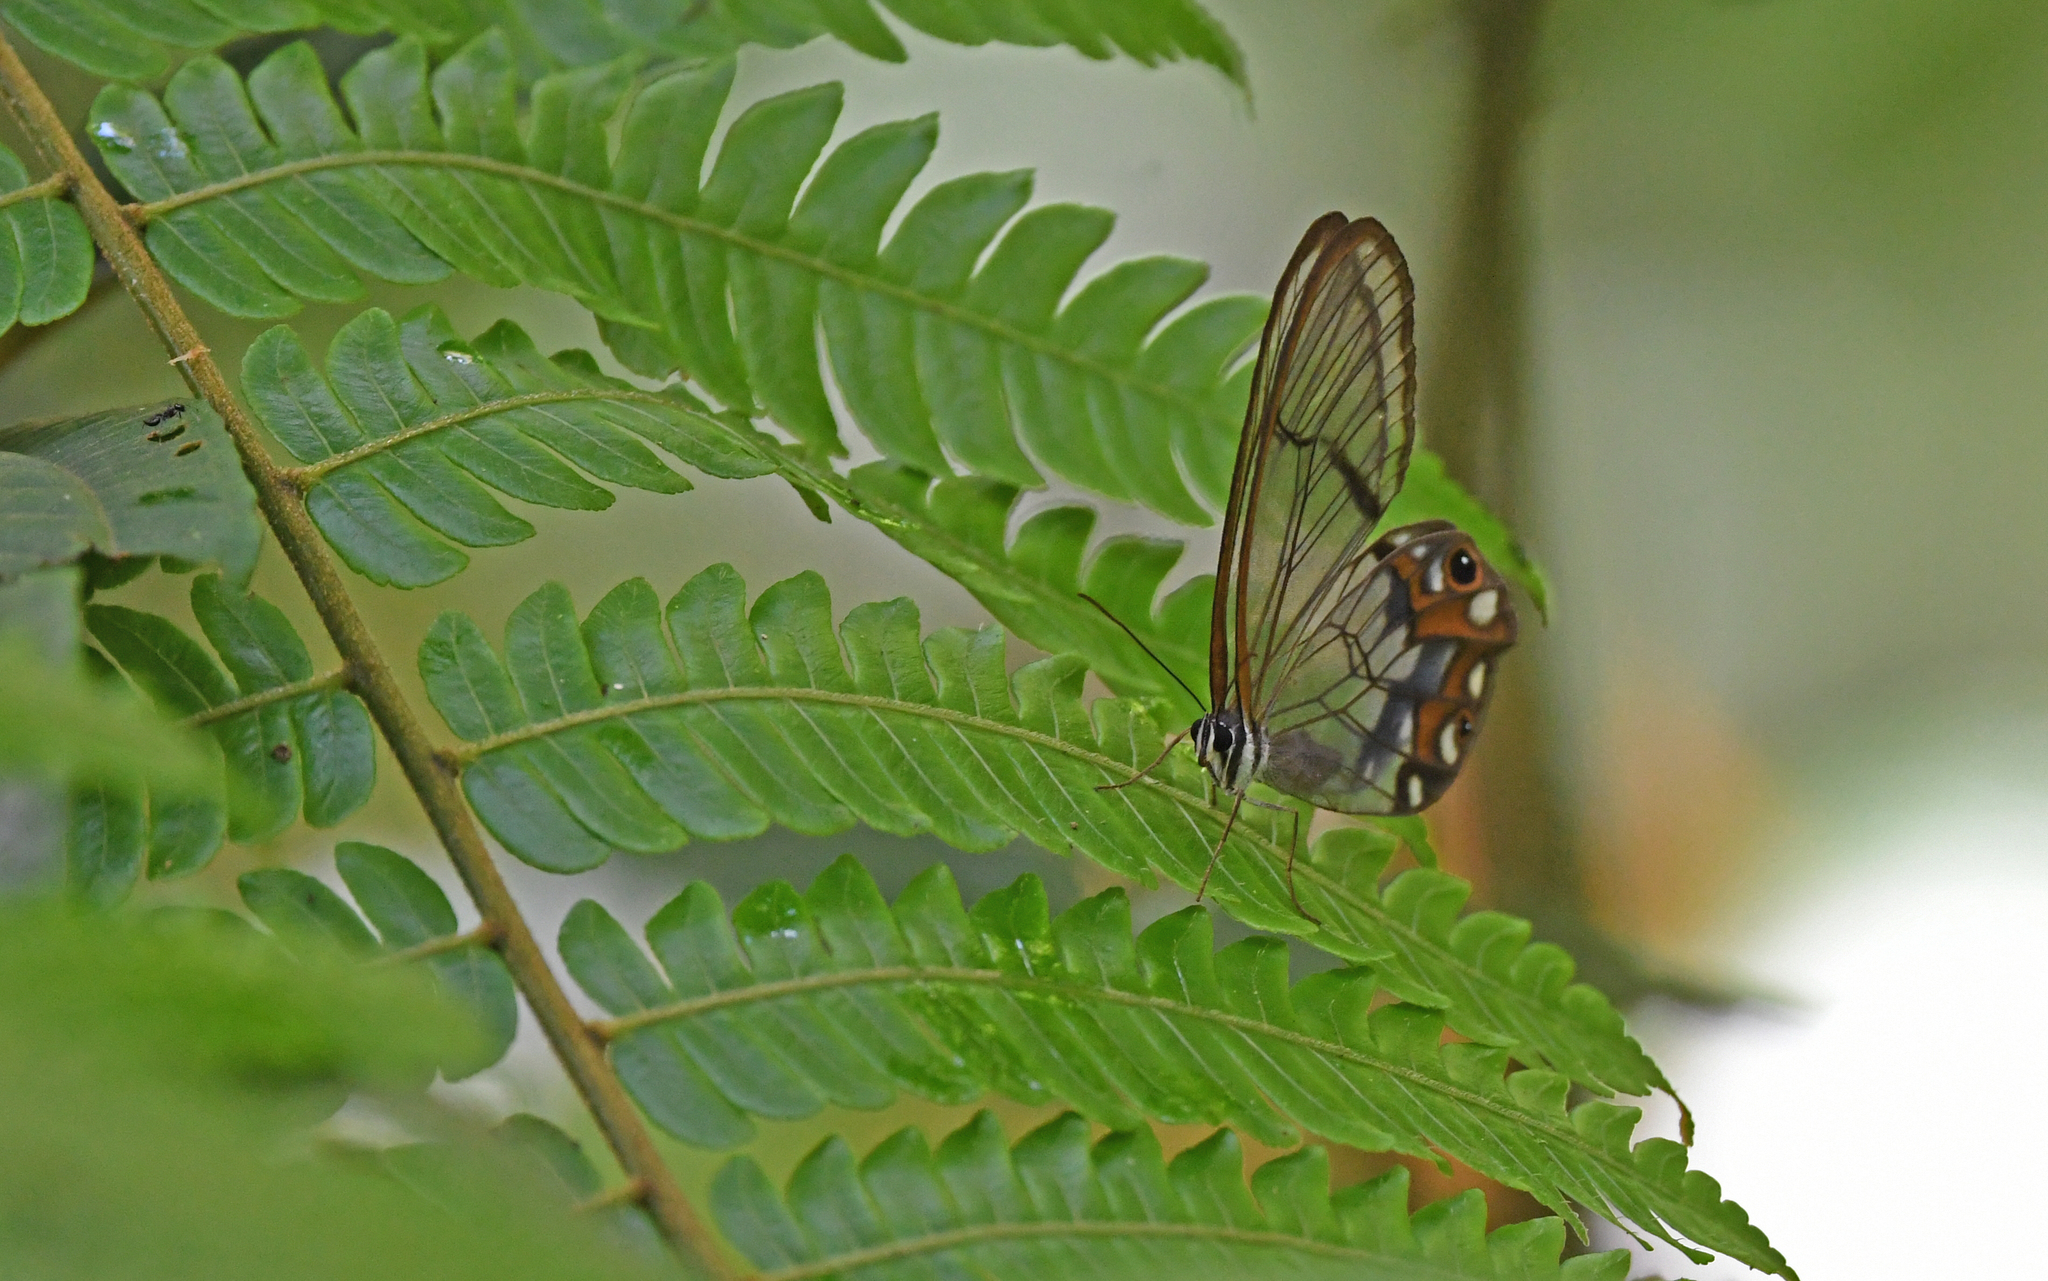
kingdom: Animalia
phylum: Arthropoda
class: Insecta
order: Lepidoptera
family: Nymphalidae
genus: Pseudohaetera
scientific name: Pseudohaetera hypaesia
